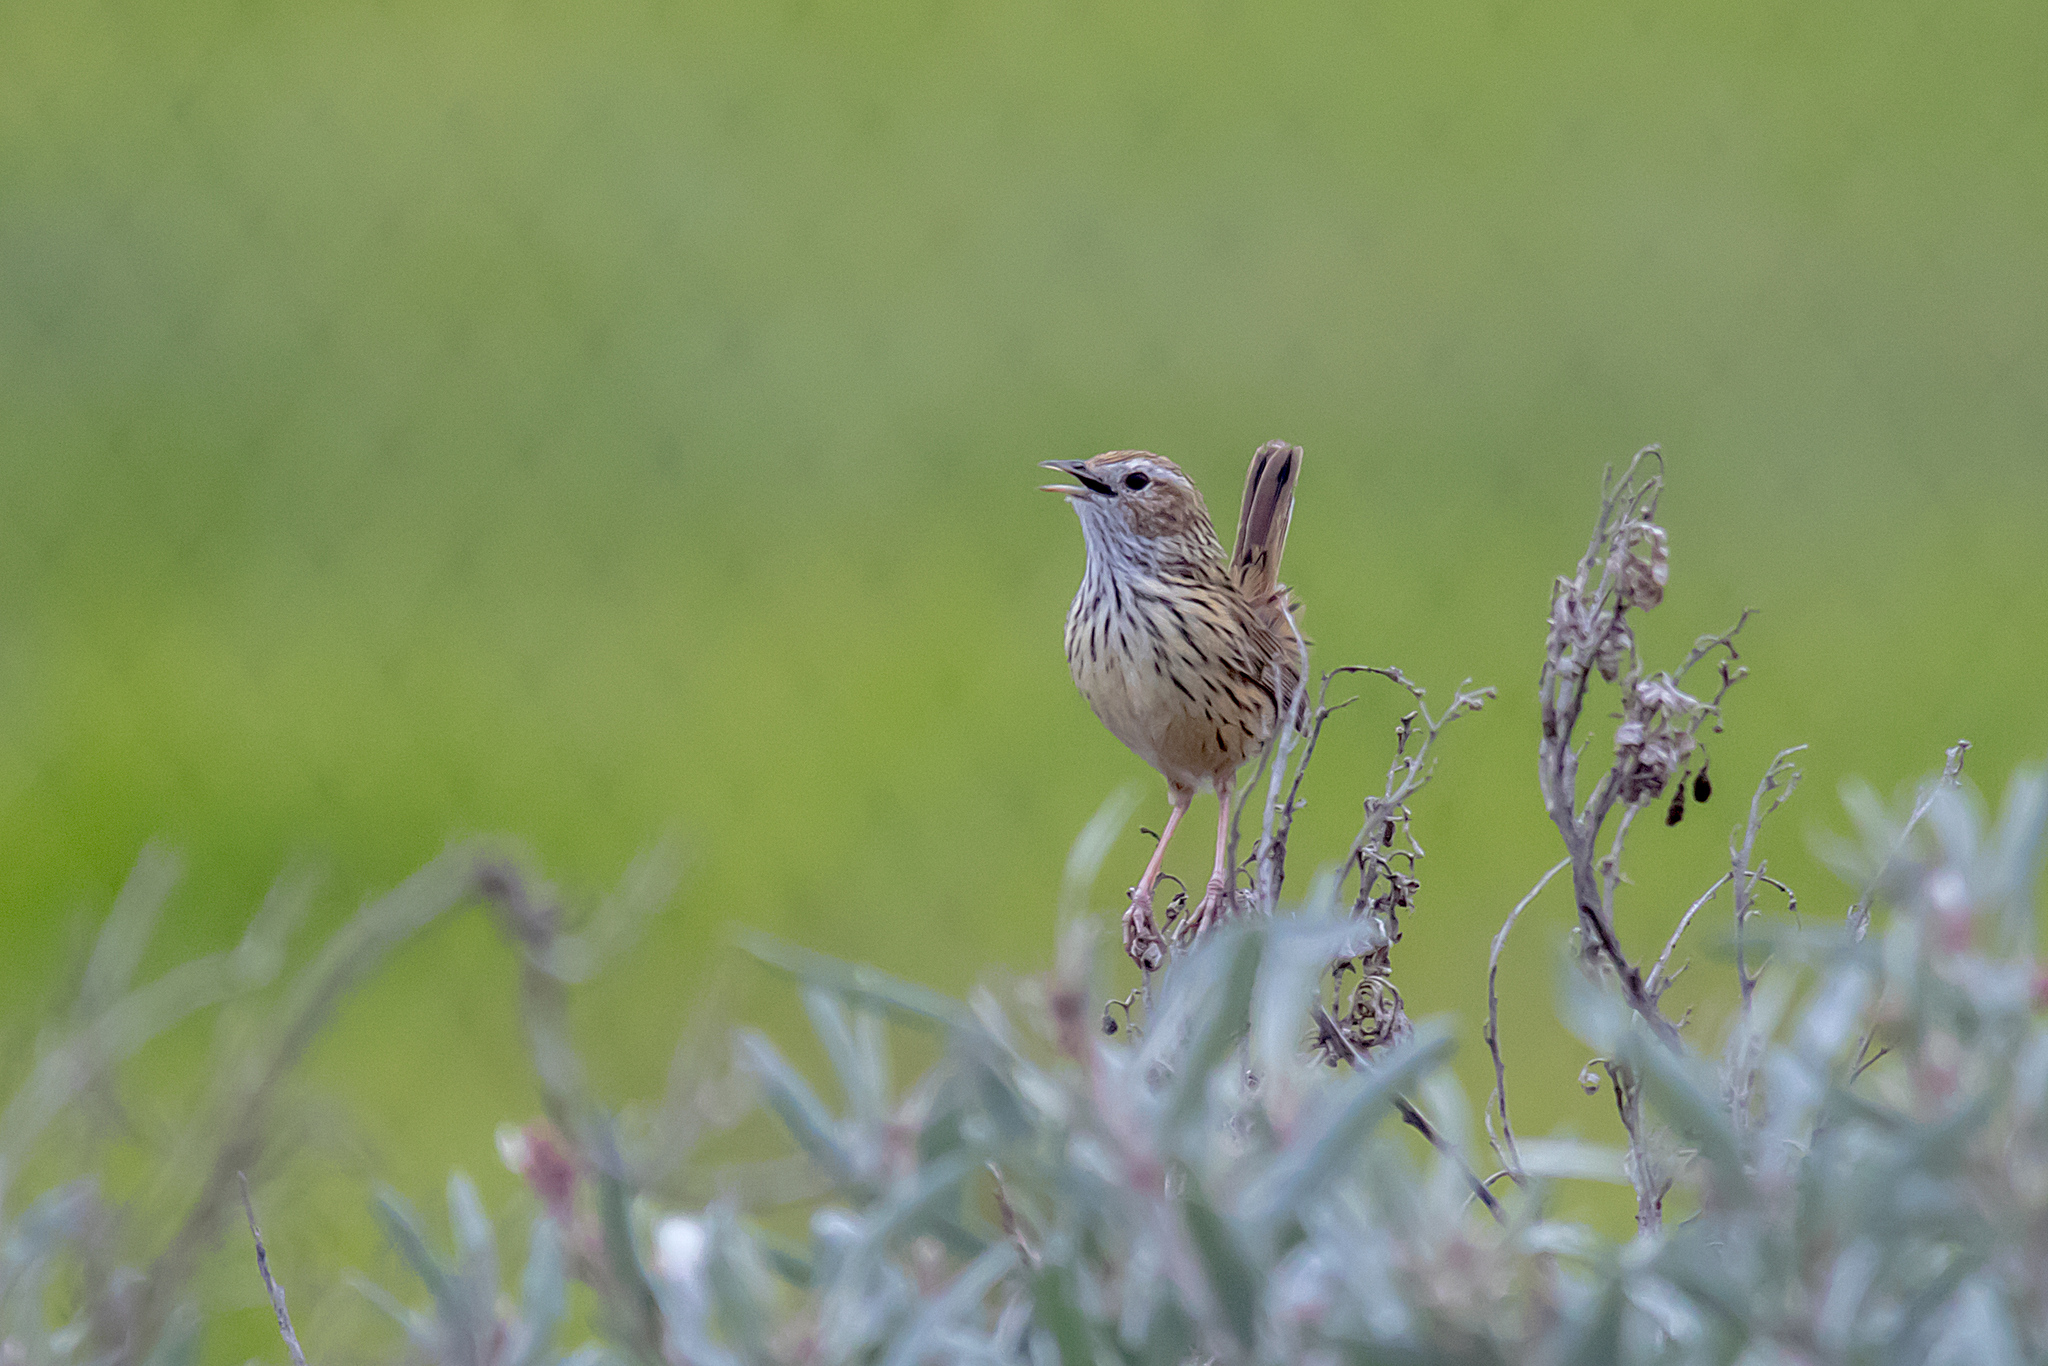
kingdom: Animalia
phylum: Chordata
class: Aves
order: Passeriformes
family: Acanthizidae
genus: Calamanthus
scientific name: Calamanthus fuliginosus
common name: Striated fieldwren
